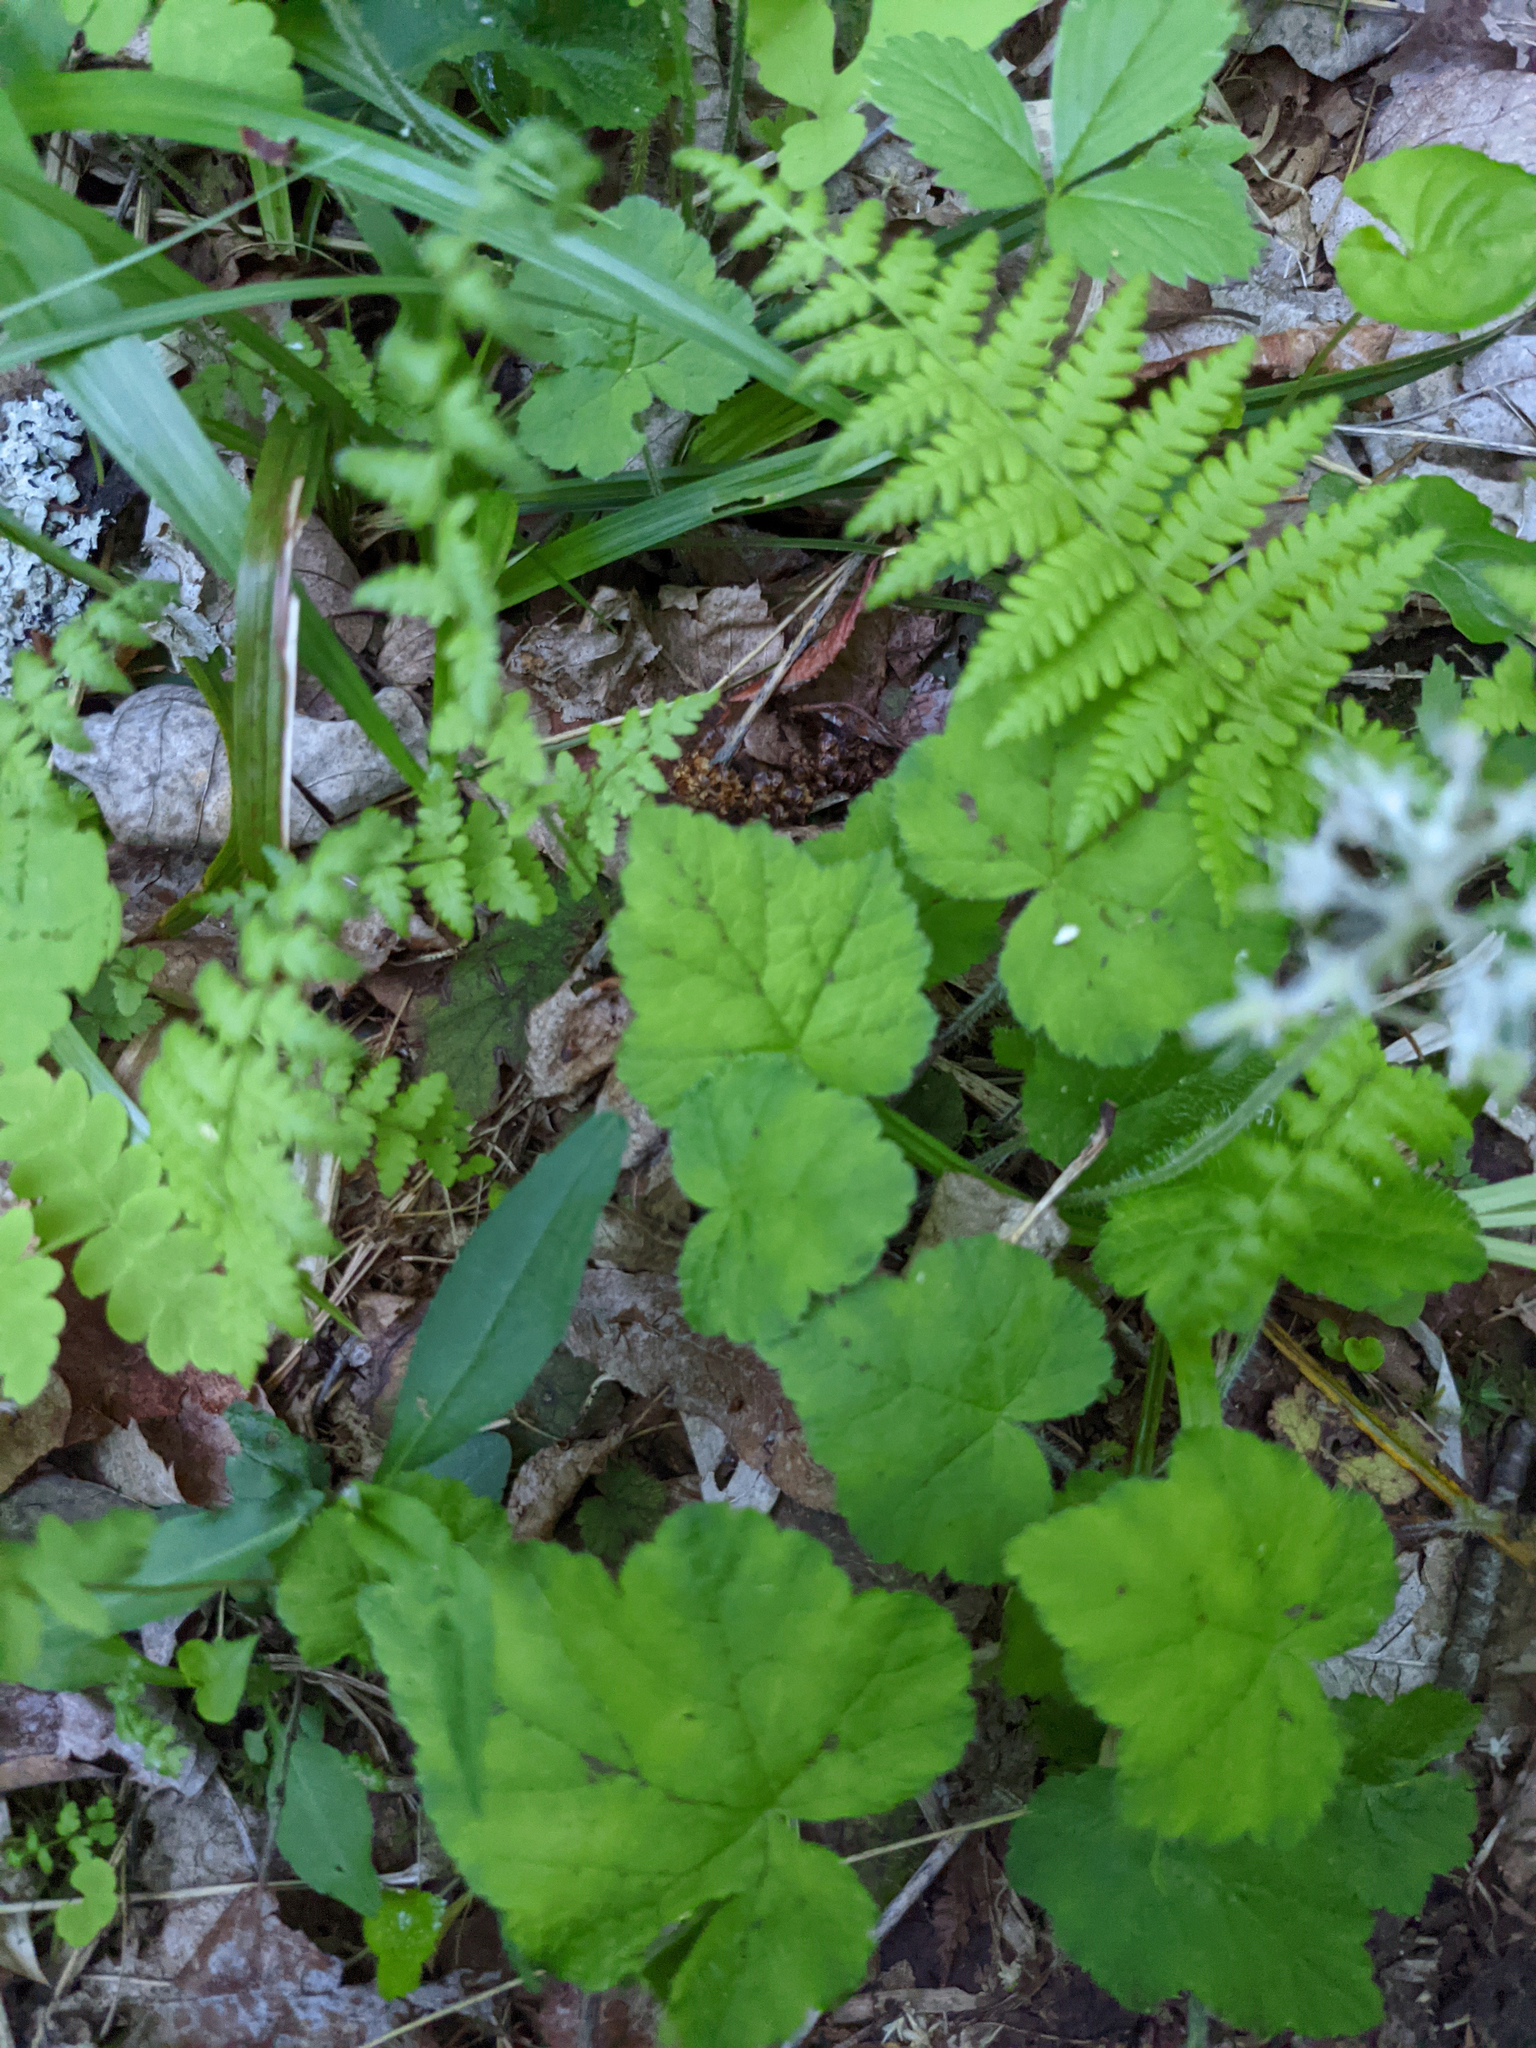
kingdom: Plantae
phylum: Tracheophyta
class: Magnoliopsida
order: Saxifragales
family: Saxifragaceae
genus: Tiarella
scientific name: Tiarella stolonifera
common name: Stoloniferous foamflower
